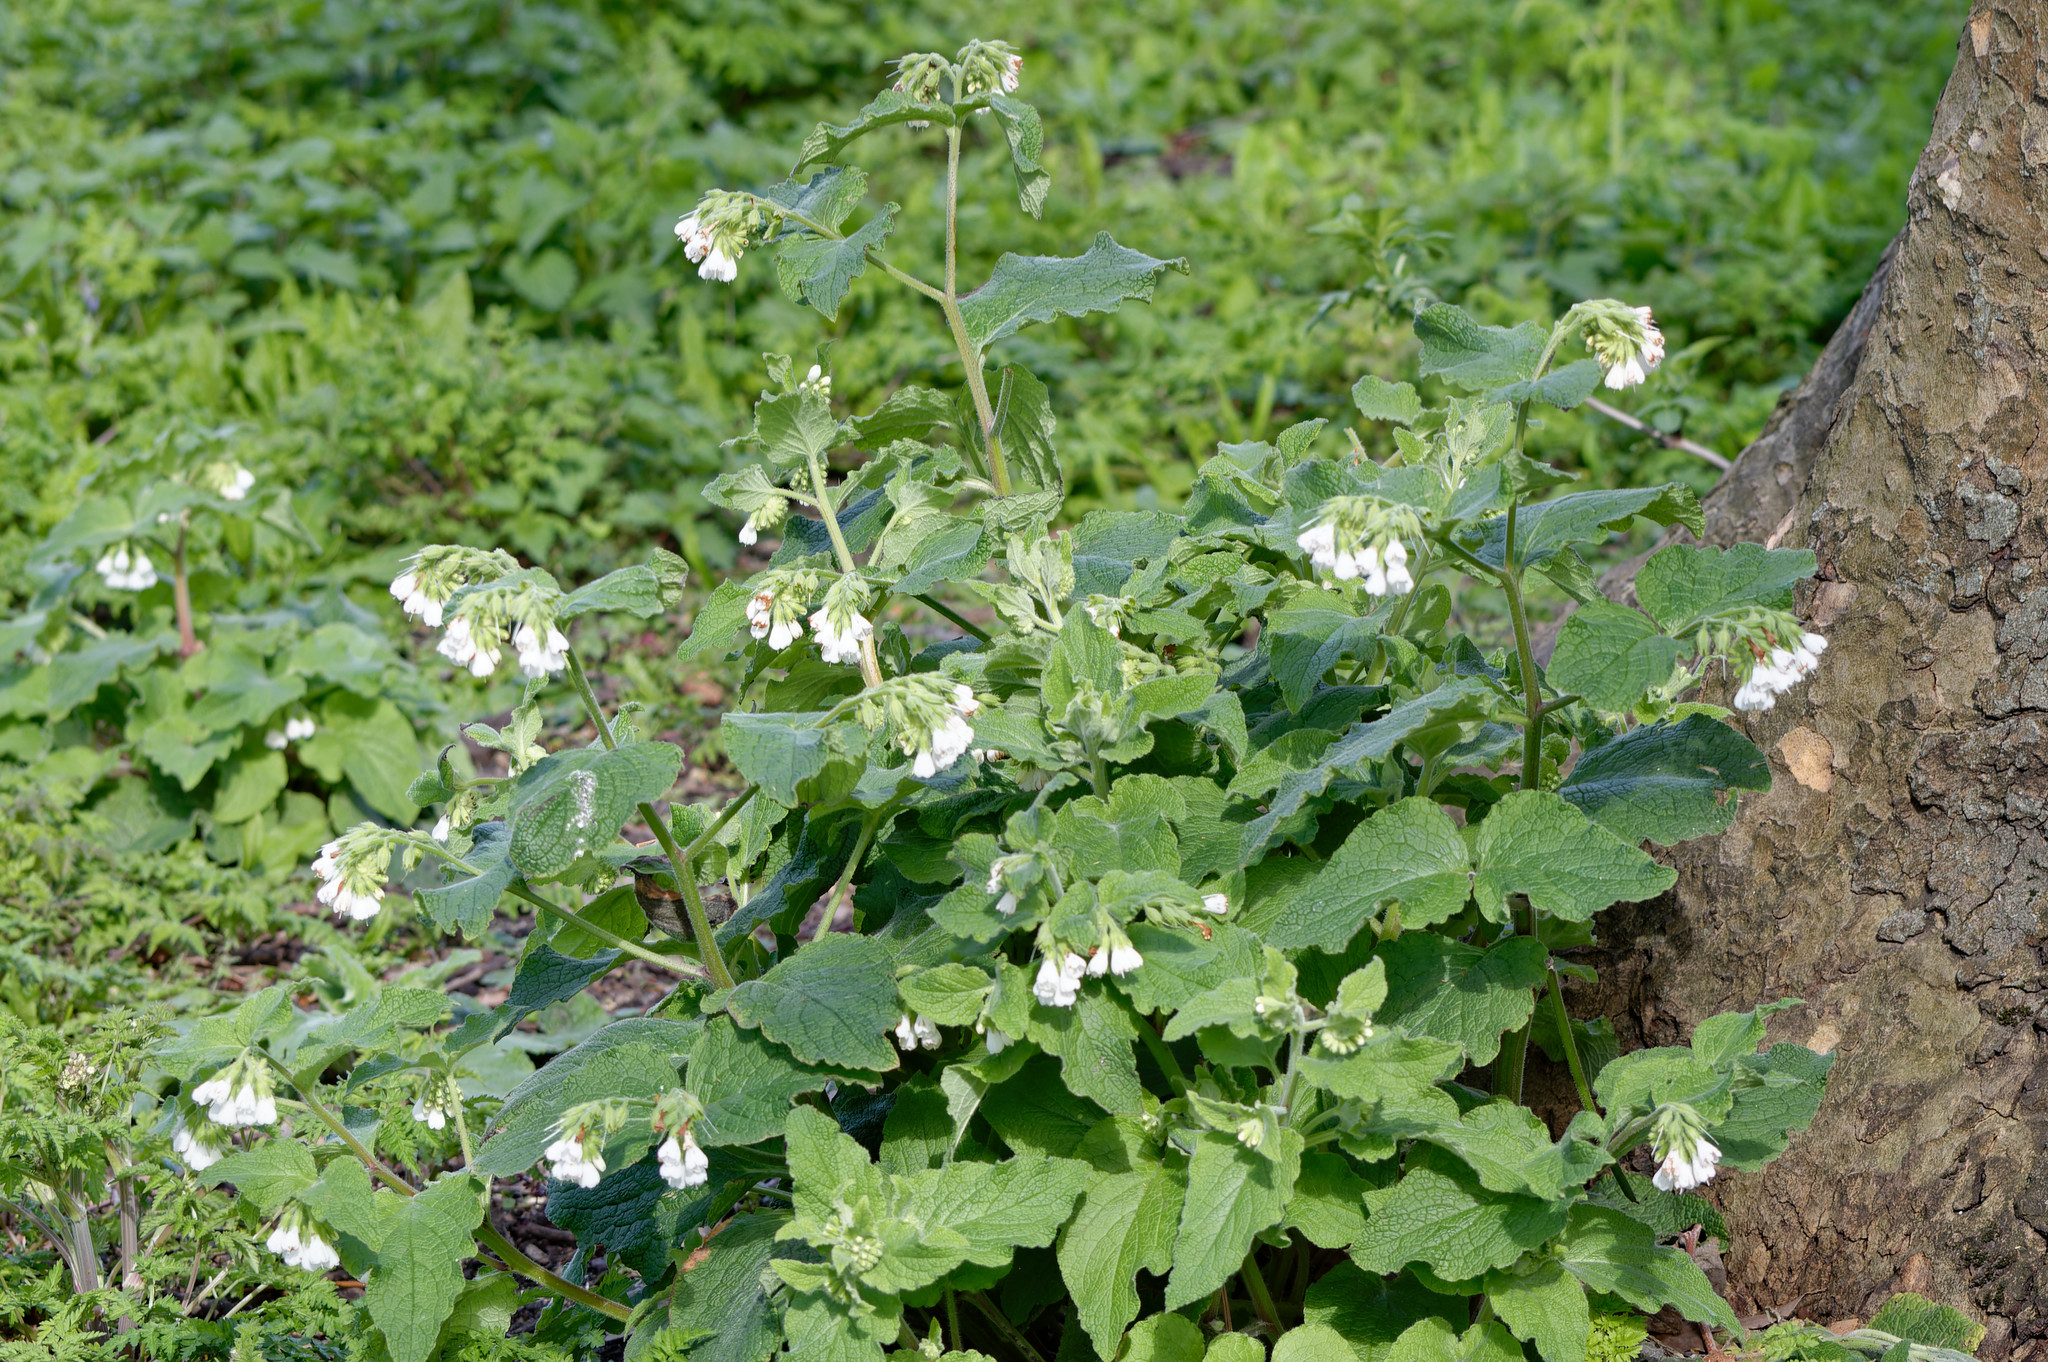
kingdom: Plantae
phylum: Tracheophyta
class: Magnoliopsida
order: Boraginales
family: Boraginaceae
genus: Symphytum
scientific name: Symphytum orientale
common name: White comfrey
